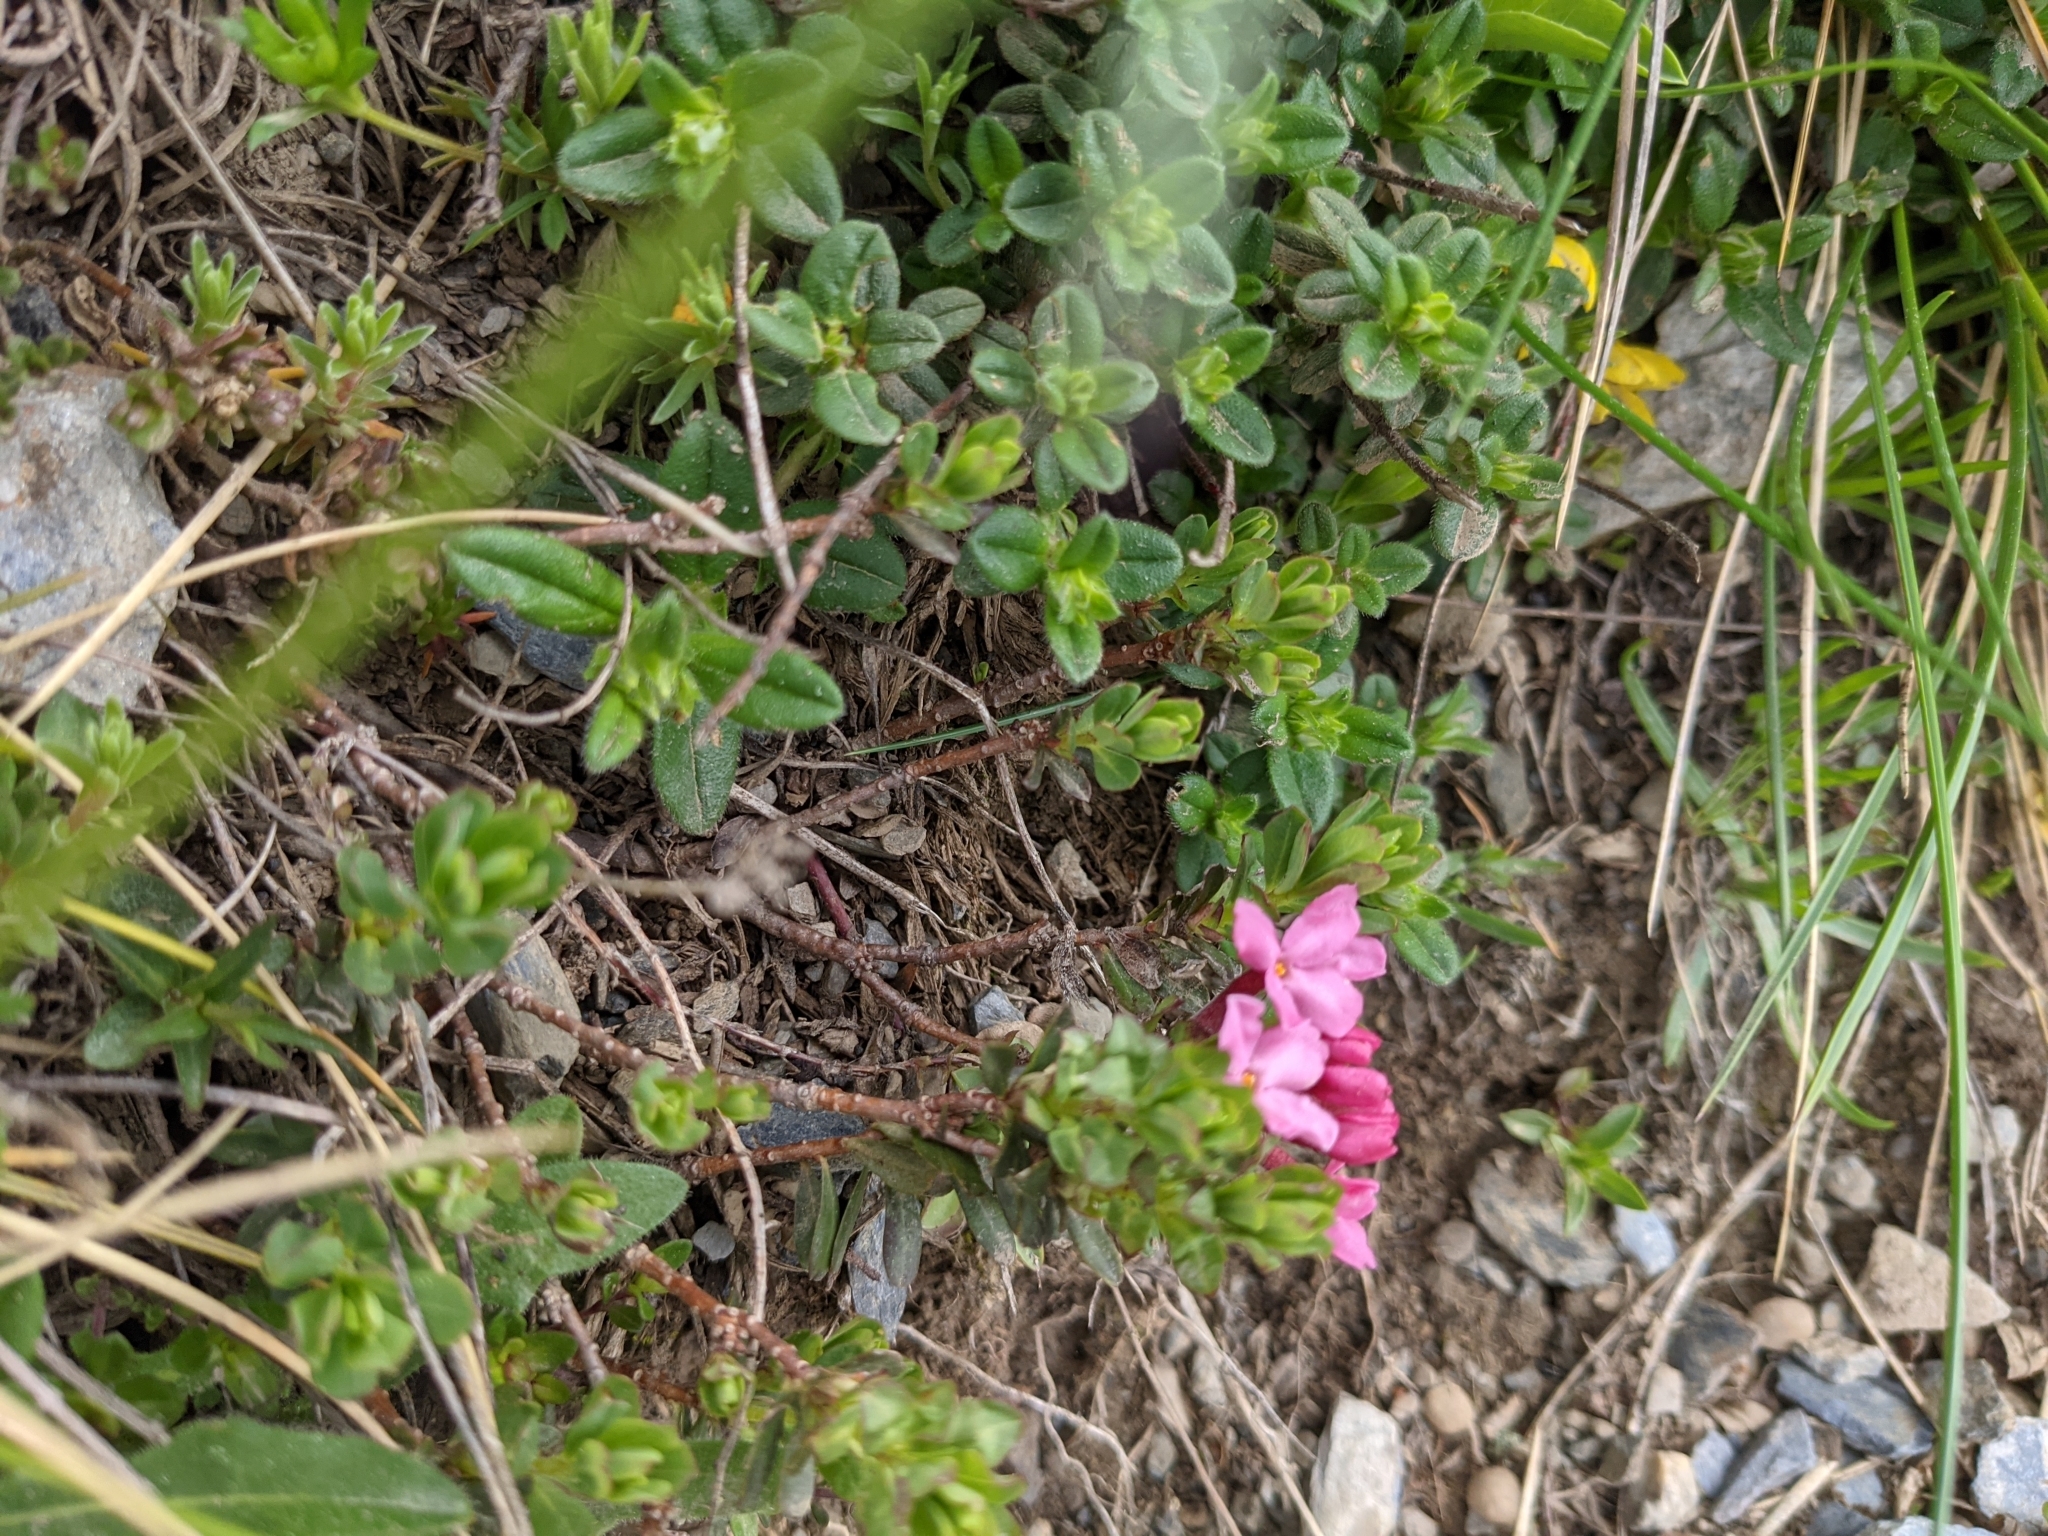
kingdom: Plantae
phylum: Tracheophyta
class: Magnoliopsida
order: Malvales
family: Thymelaeaceae
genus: Daphne
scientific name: Daphne cneorum
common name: Garland-flower
